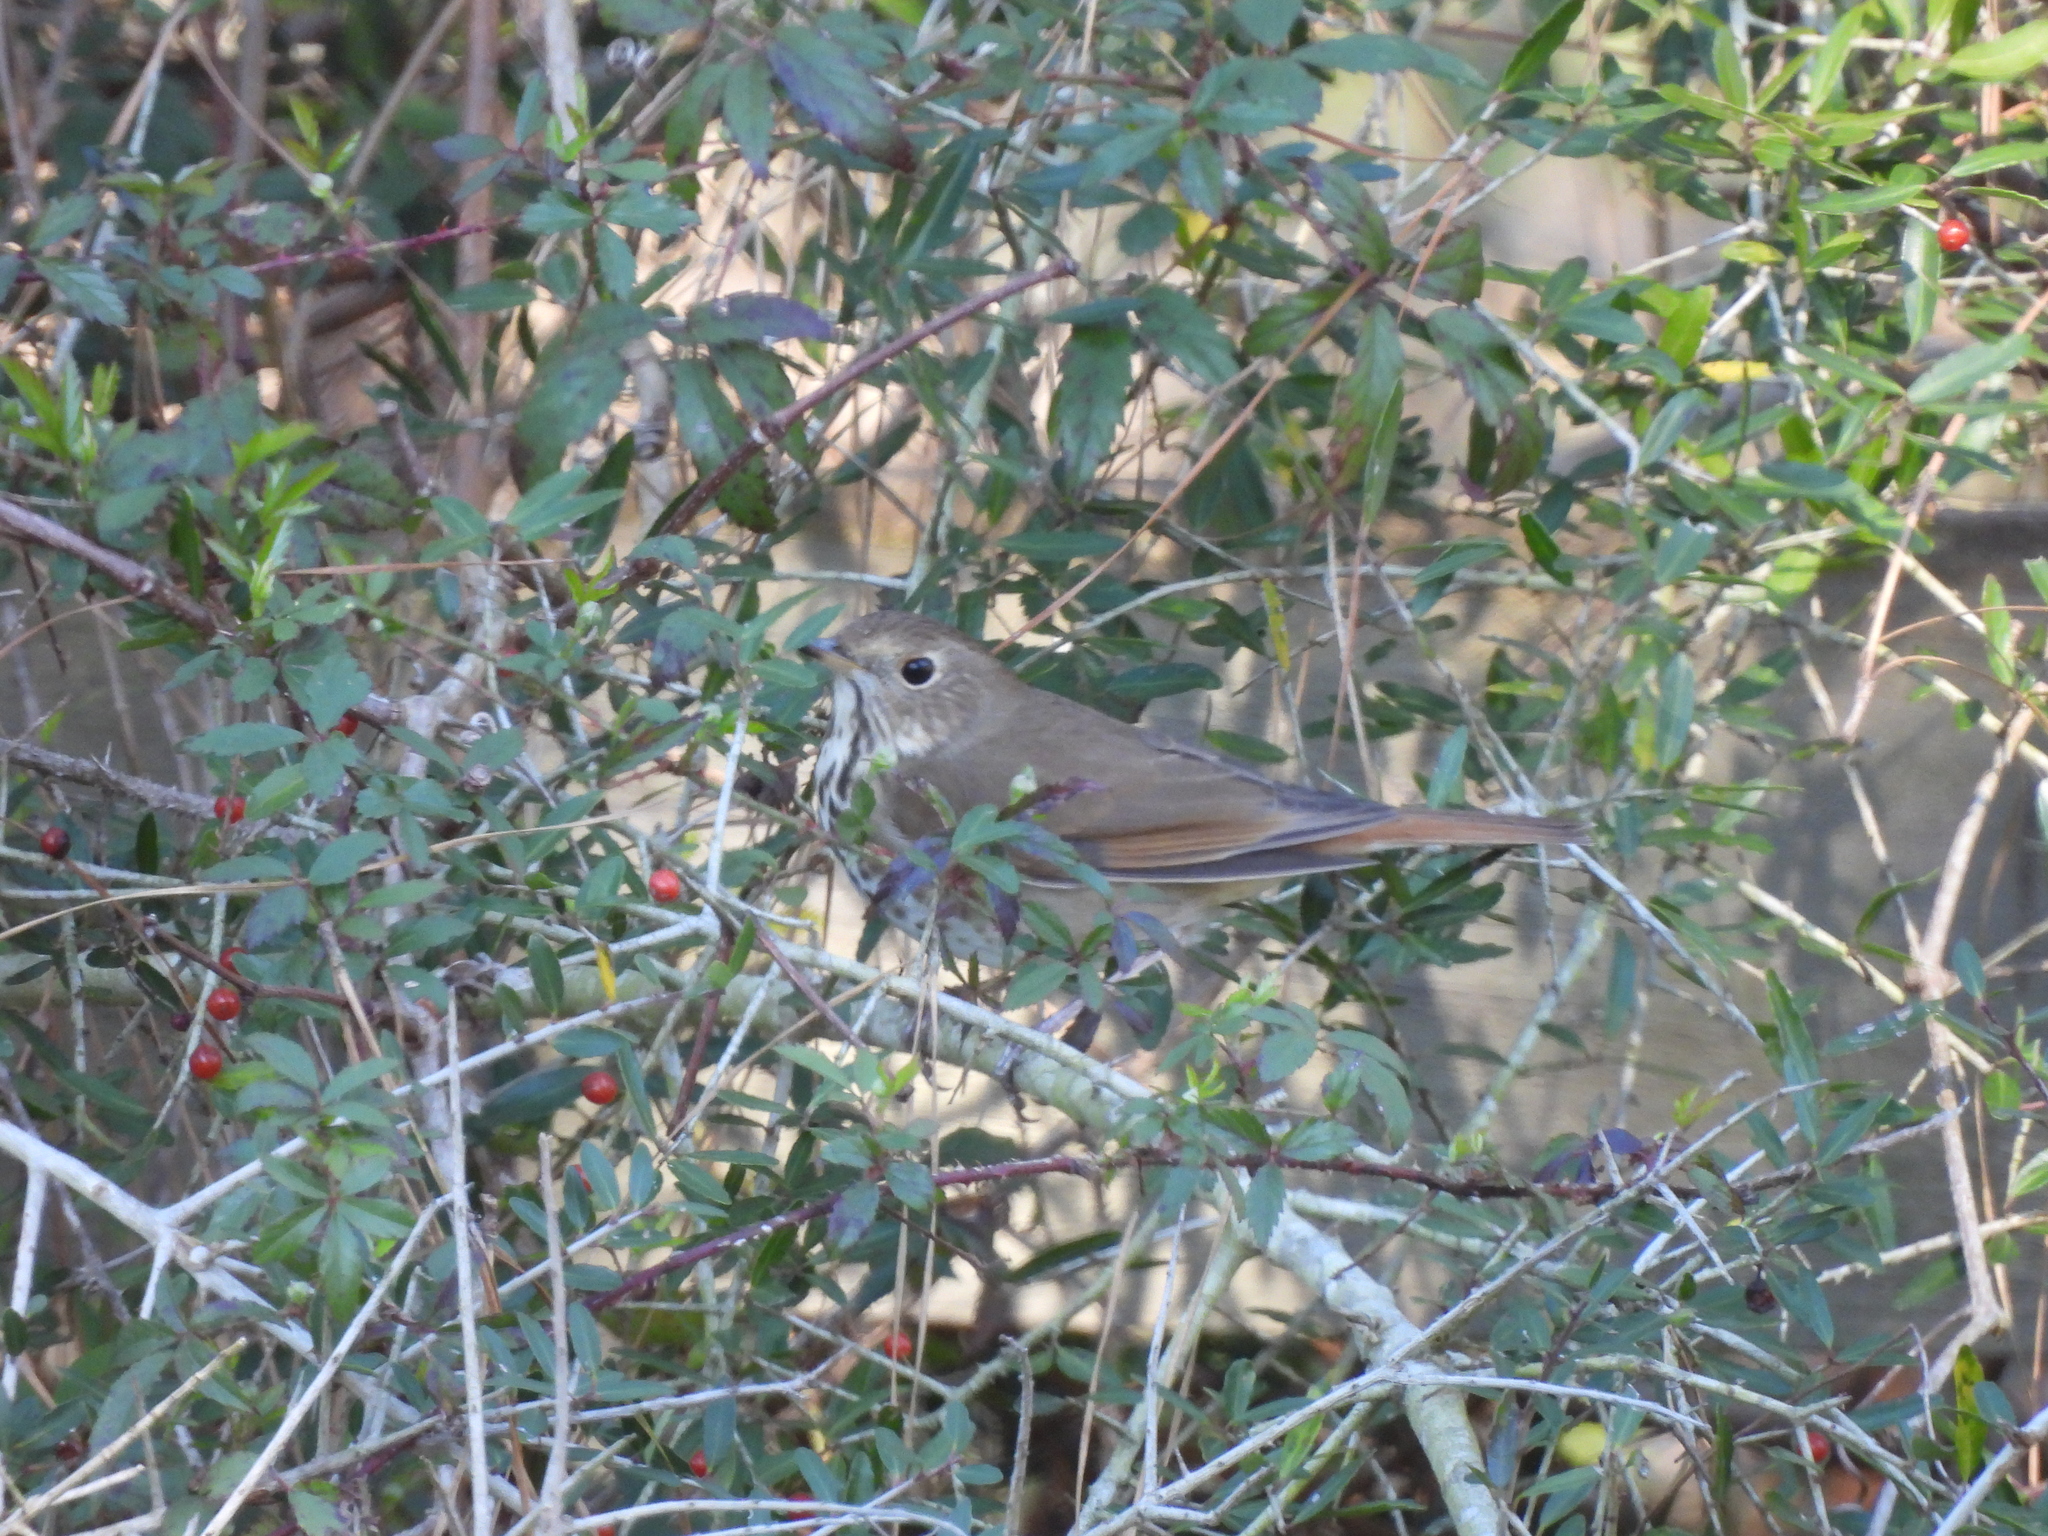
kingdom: Animalia
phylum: Chordata
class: Aves
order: Passeriformes
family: Turdidae
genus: Catharus
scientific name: Catharus guttatus
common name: Hermit thrush
